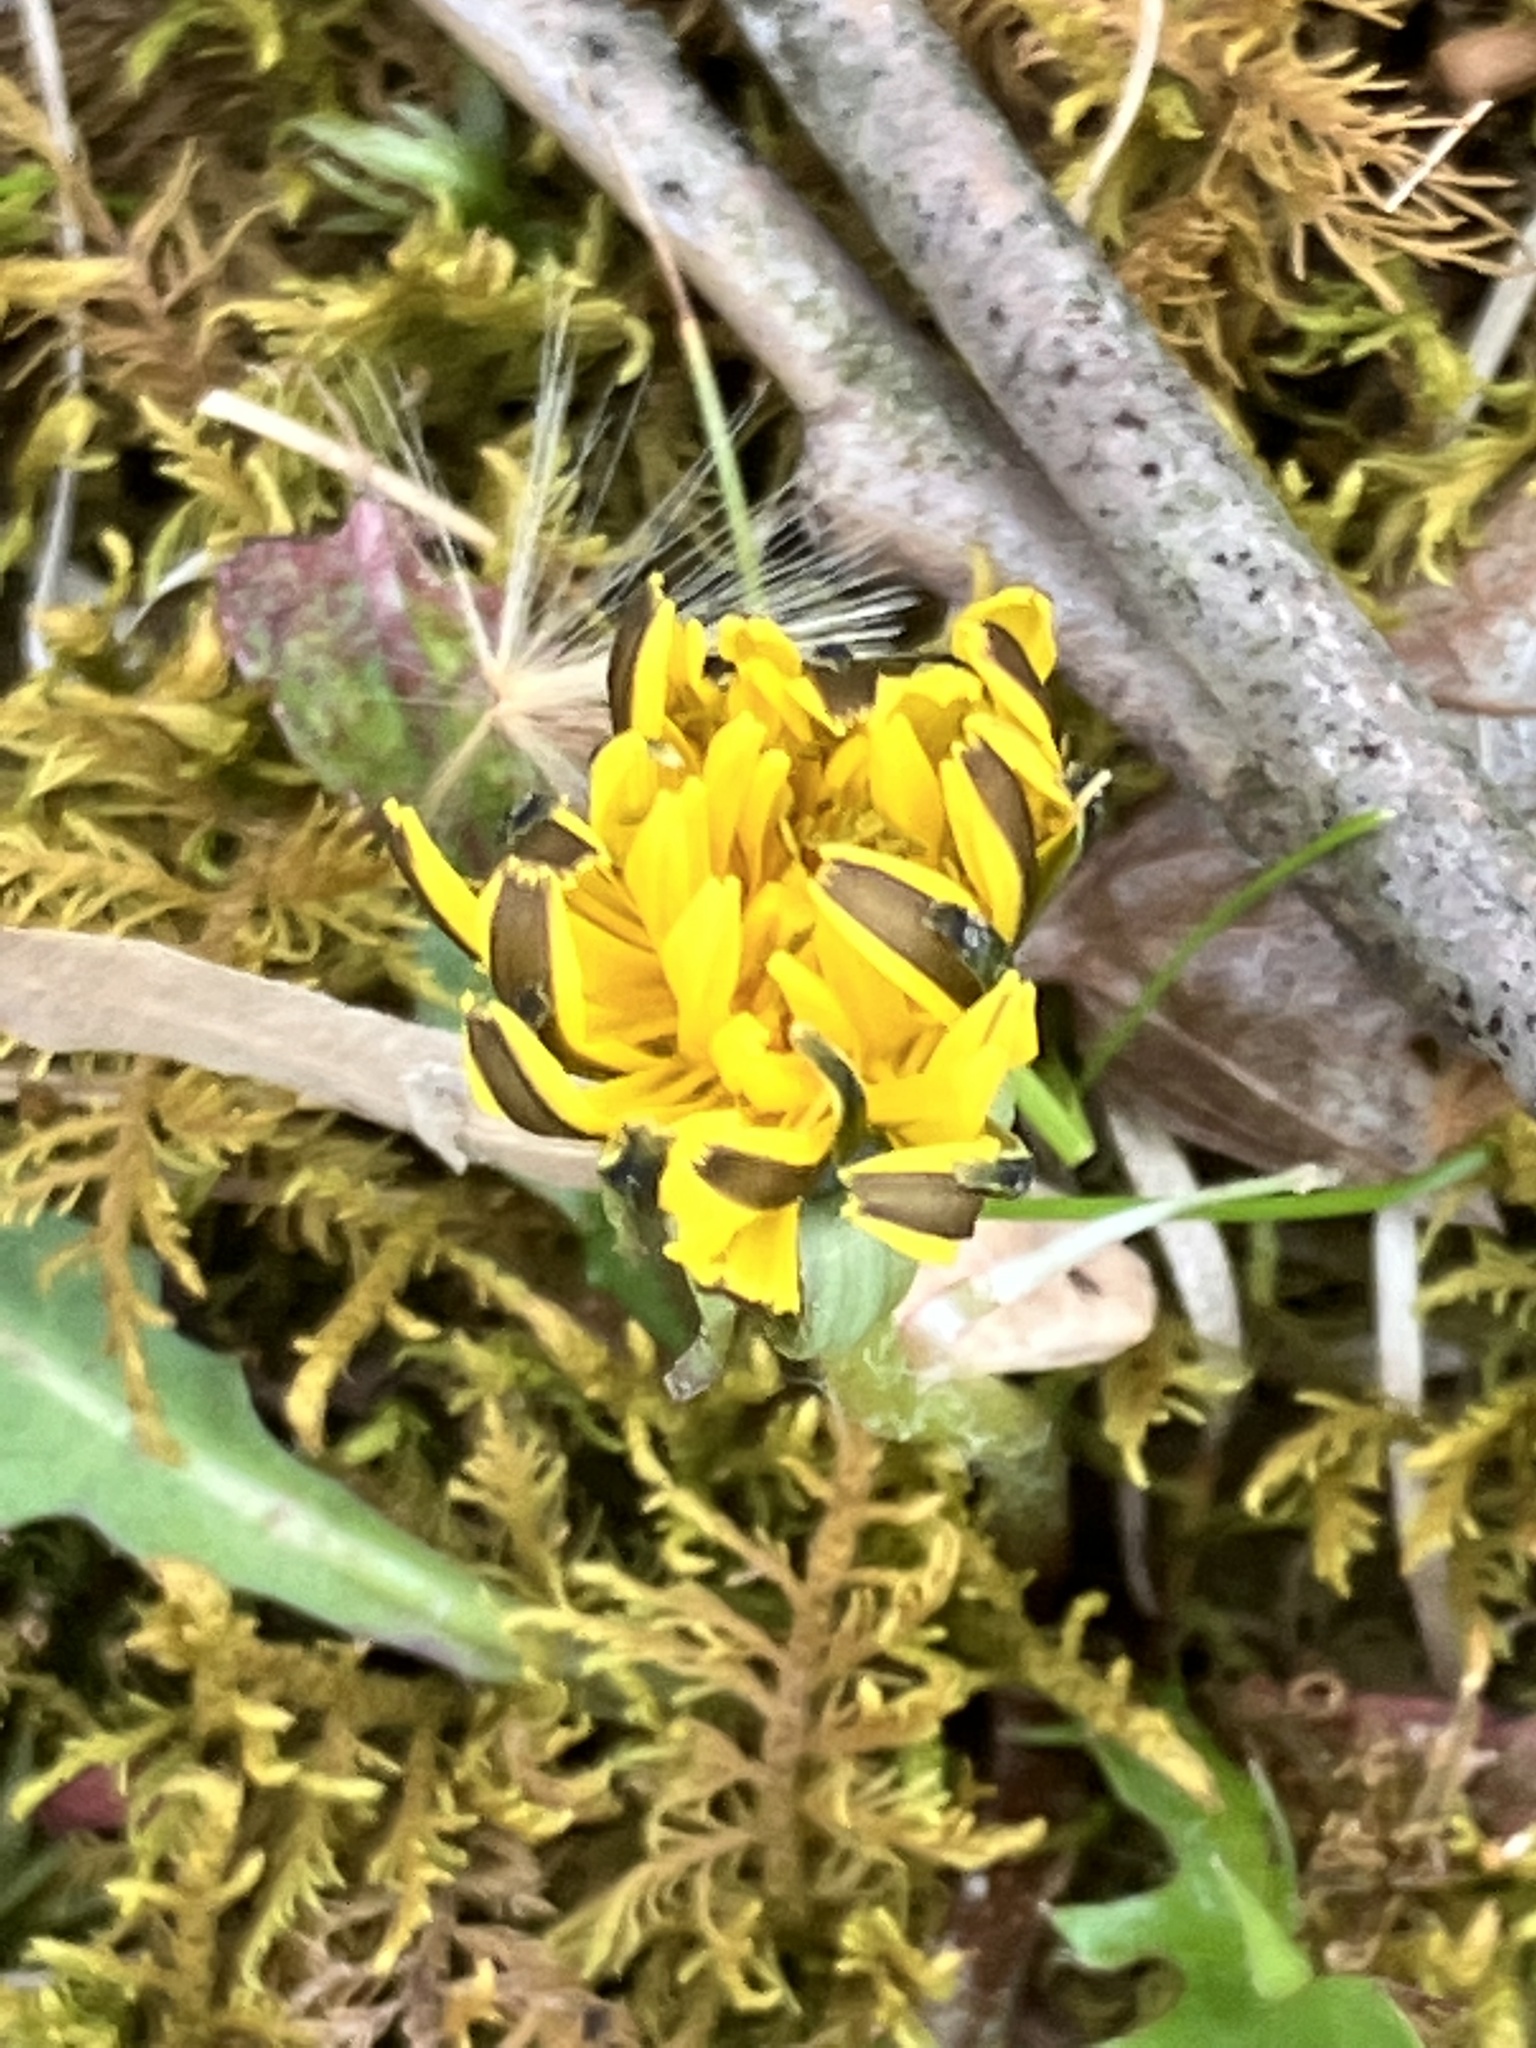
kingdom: Plantae
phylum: Tracheophyta
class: Magnoliopsida
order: Asterales
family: Asteraceae
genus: Taraxacum
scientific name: Taraxacum
